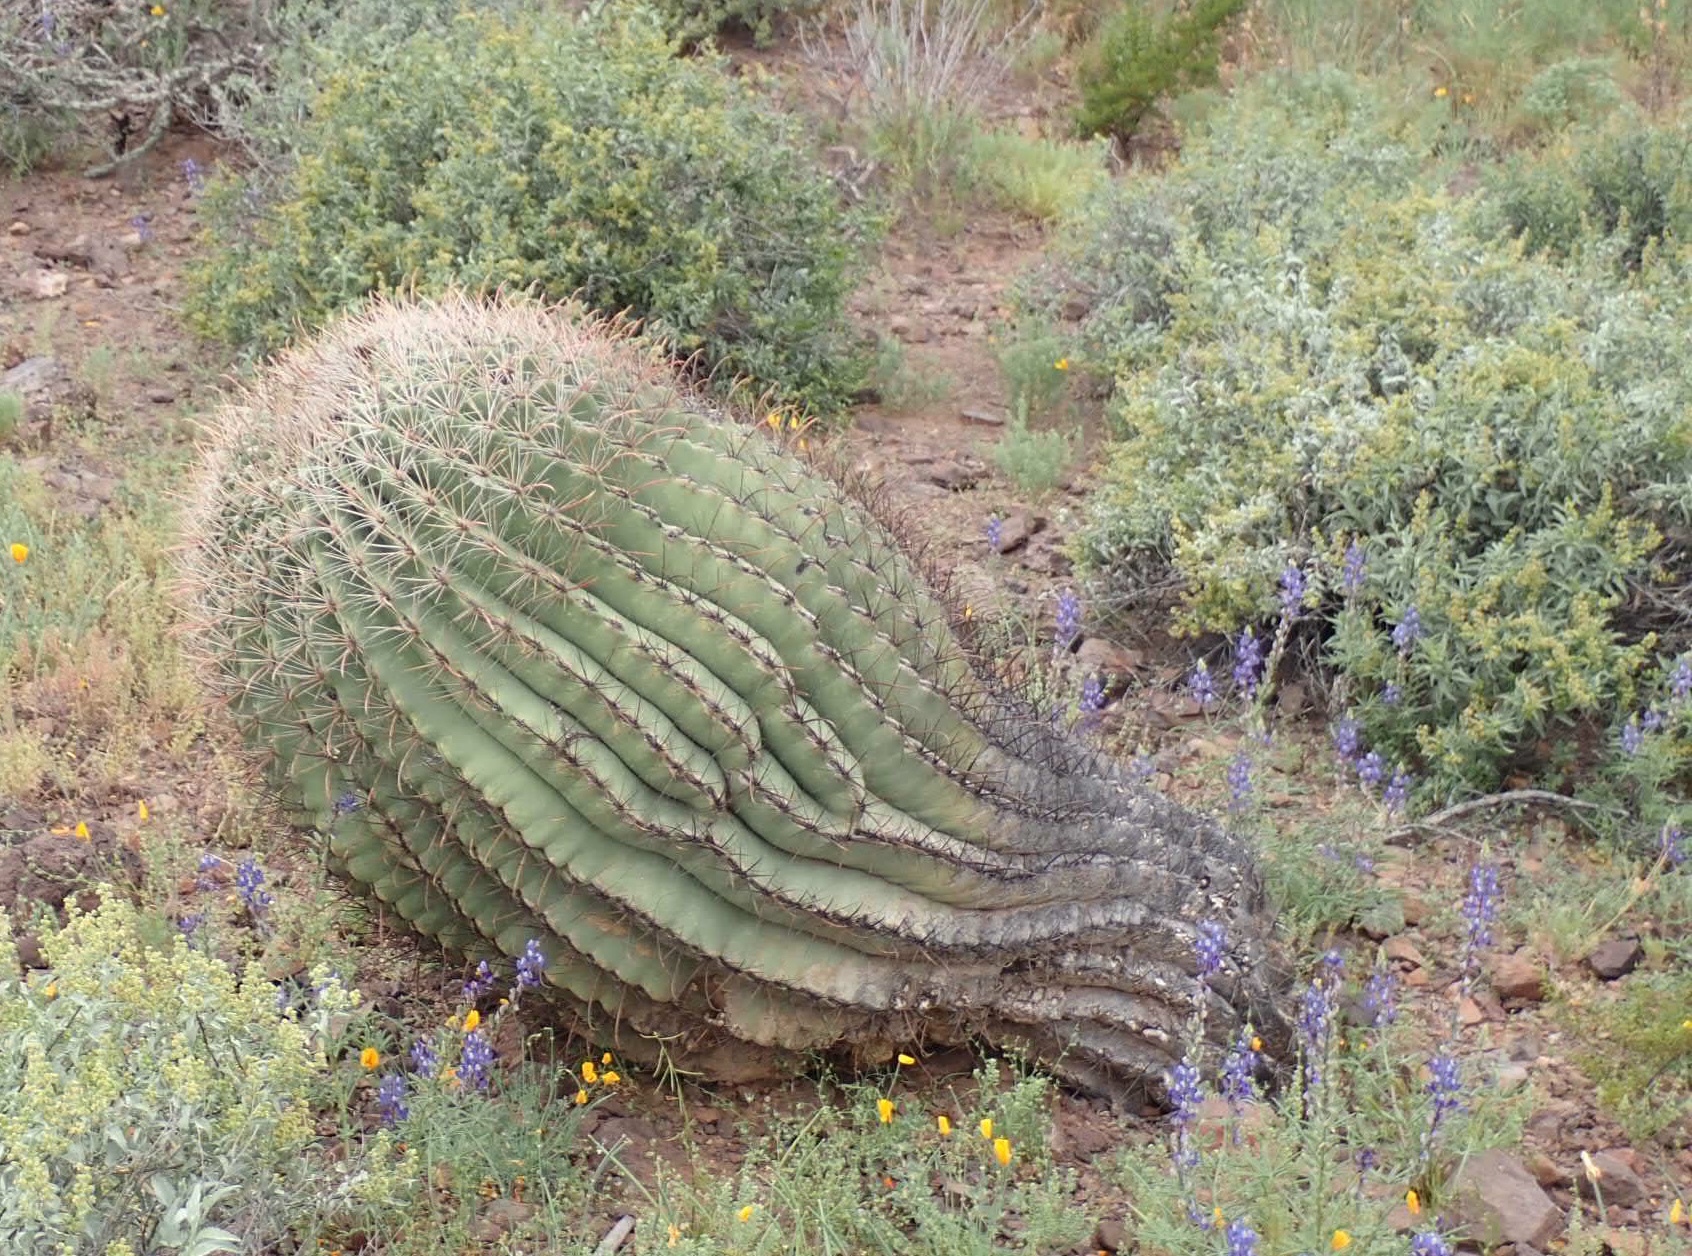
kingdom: Plantae
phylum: Tracheophyta
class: Magnoliopsida
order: Caryophyllales
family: Cactaceae
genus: Ferocactus
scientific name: Ferocactus wislizeni
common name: Candy barrel cactus
